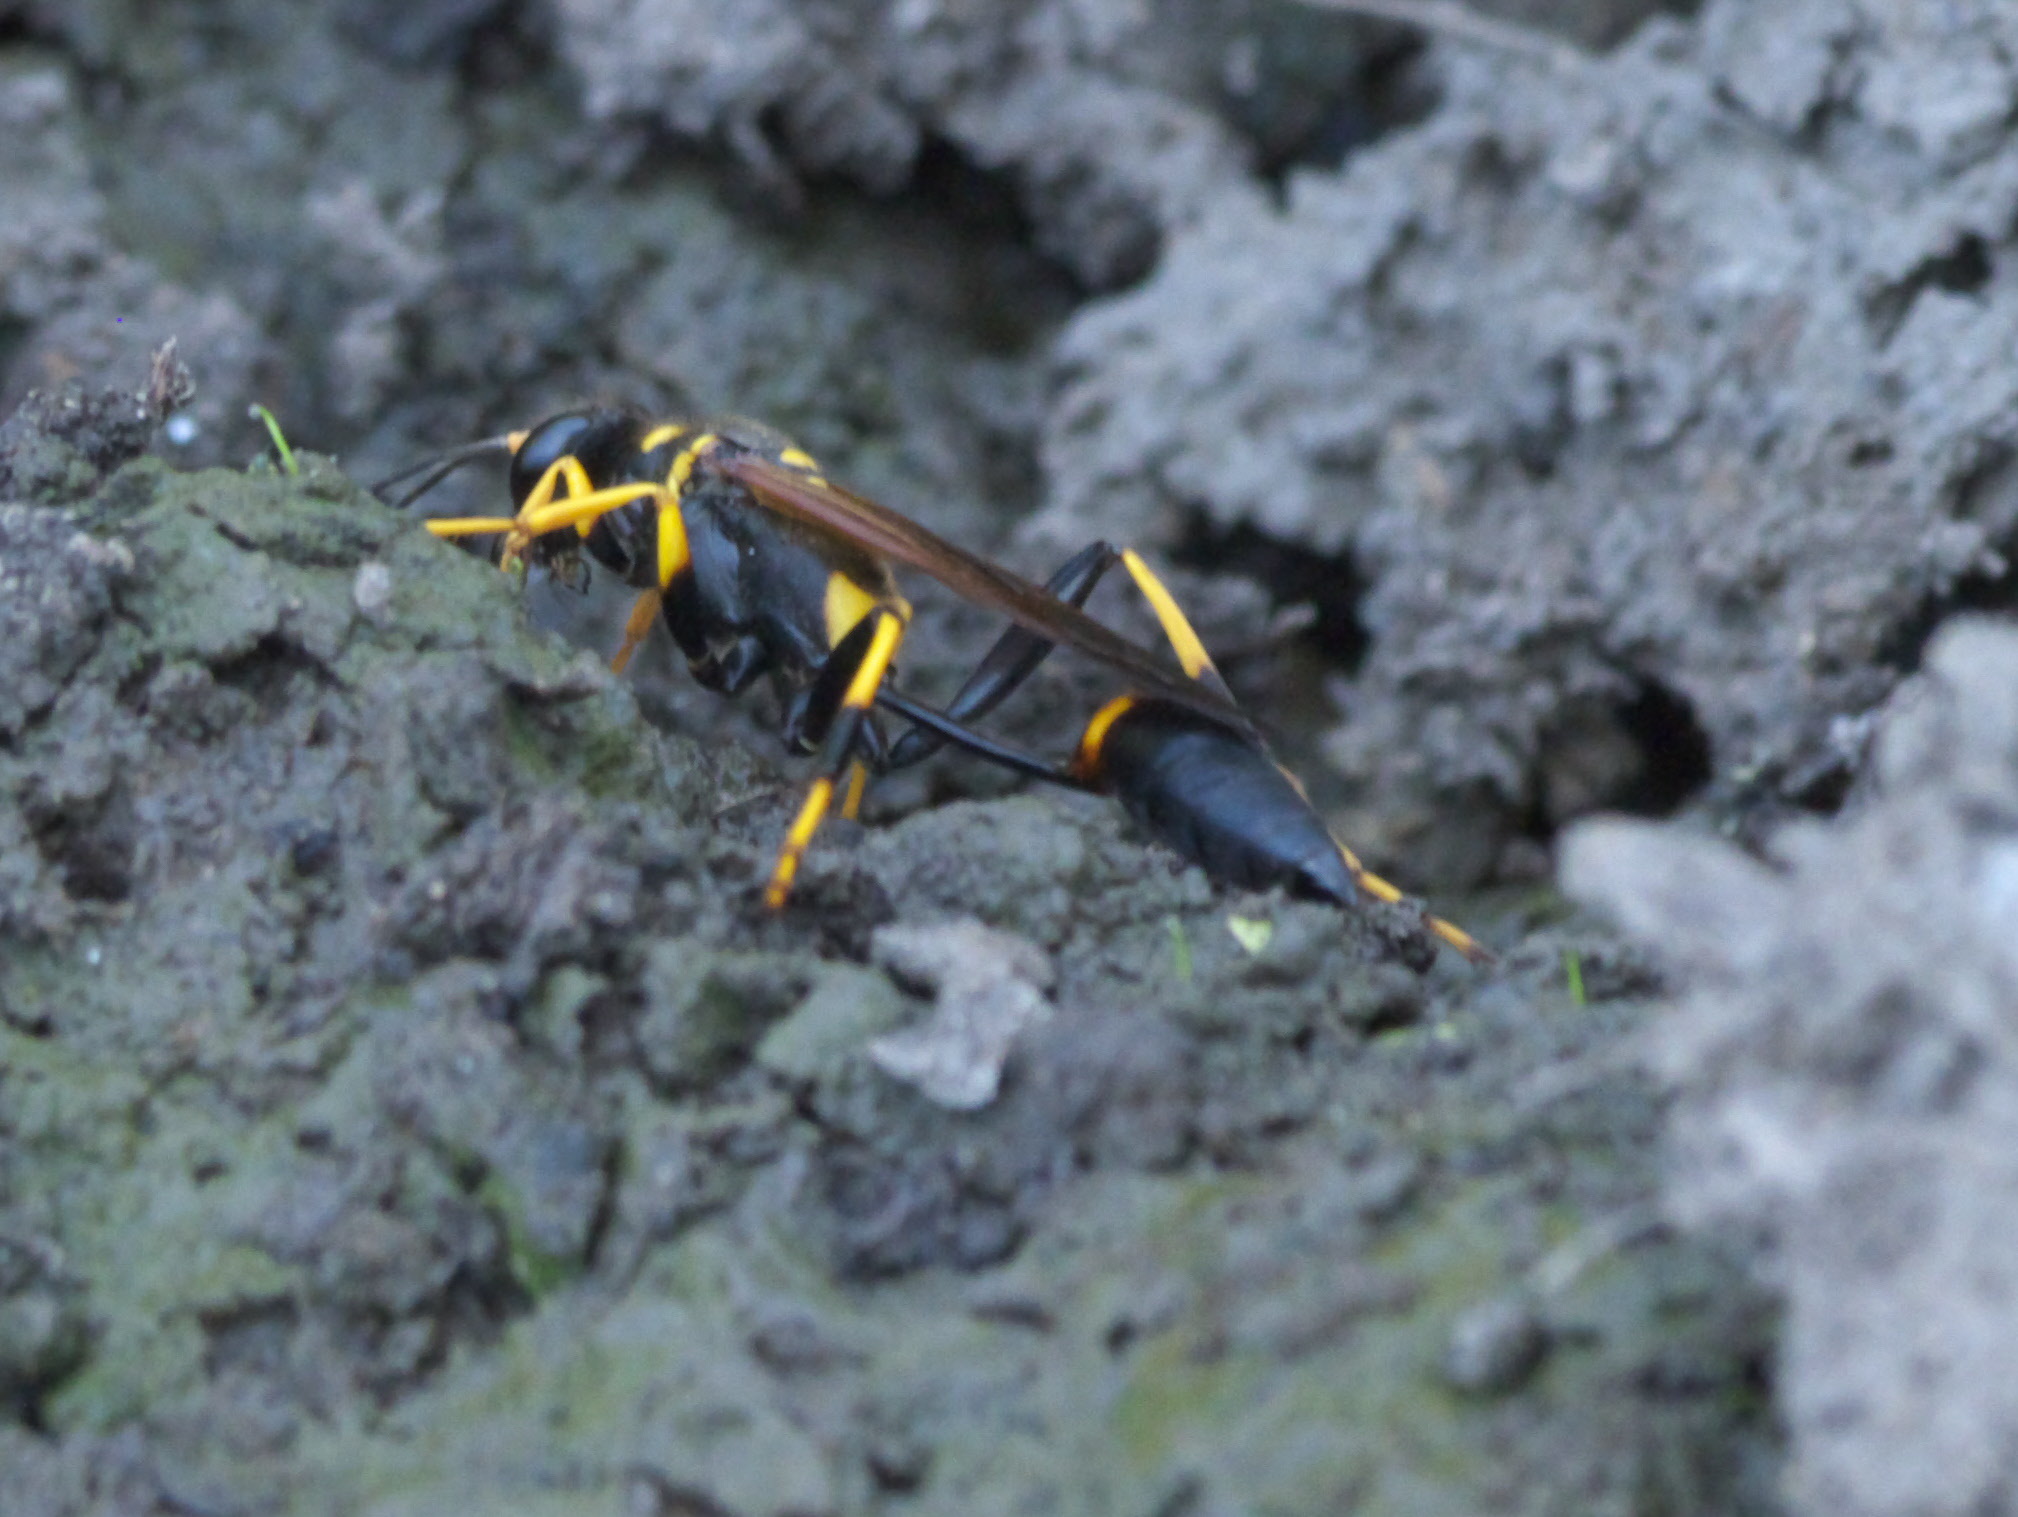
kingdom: Animalia
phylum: Arthropoda
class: Insecta
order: Hymenoptera
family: Sphecidae
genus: Sceliphron
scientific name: Sceliphron caementarium
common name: Mud dauber
